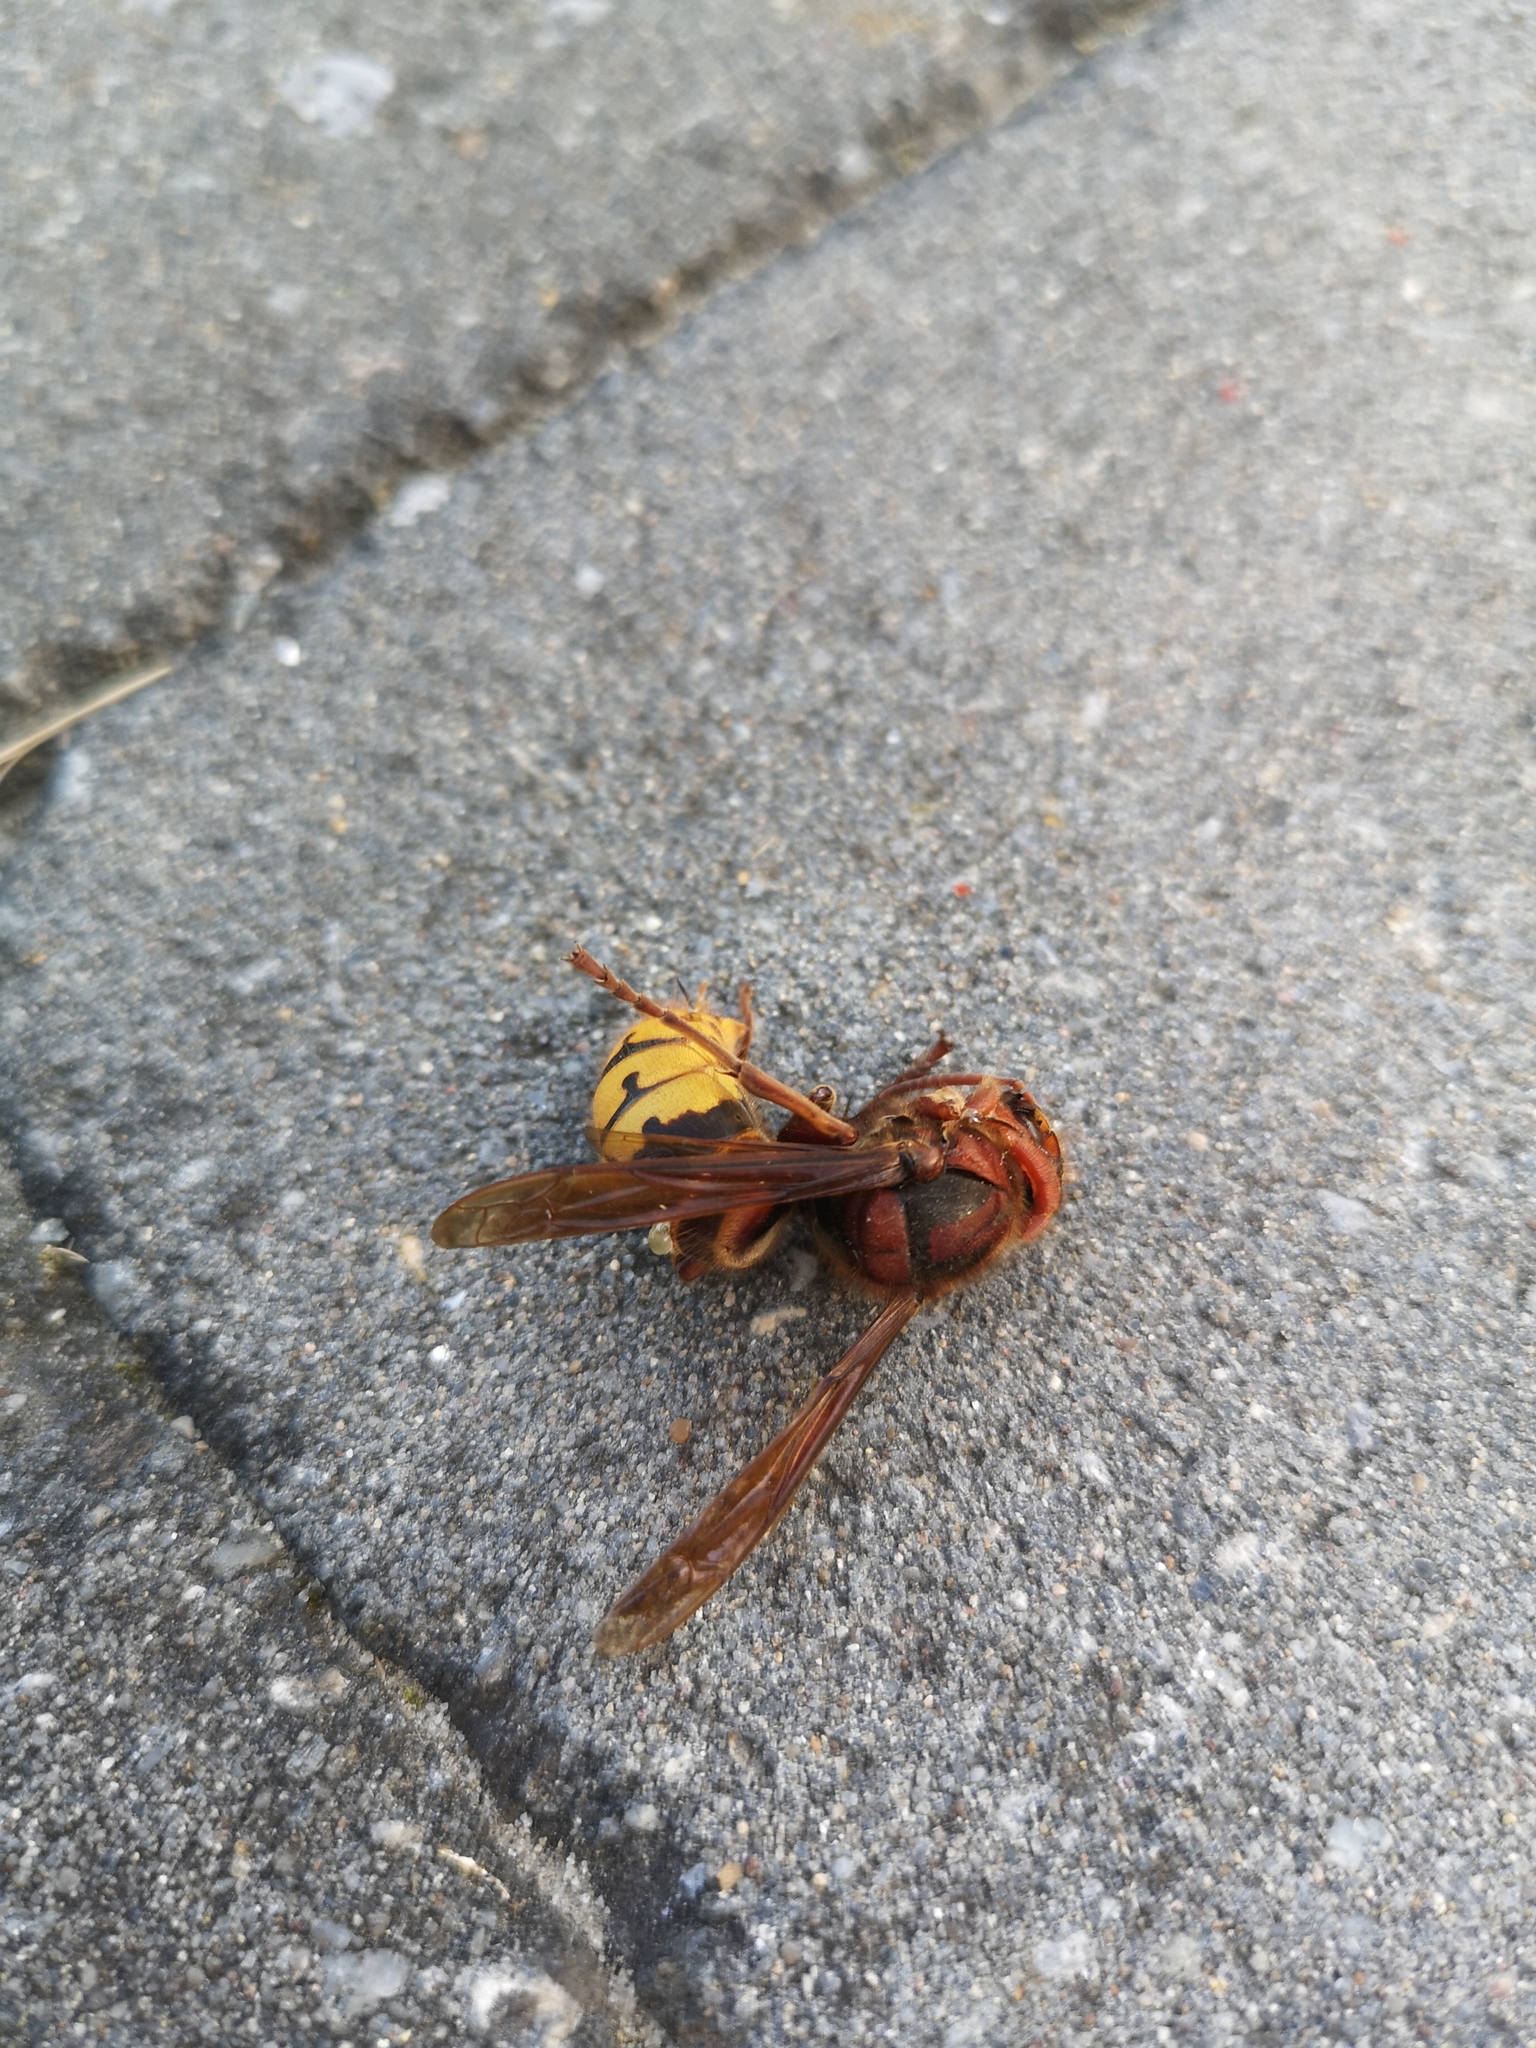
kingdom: Animalia
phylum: Arthropoda
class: Insecta
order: Hymenoptera
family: Vespidae
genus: Vespa
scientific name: Vespa crabro
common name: Hornet
